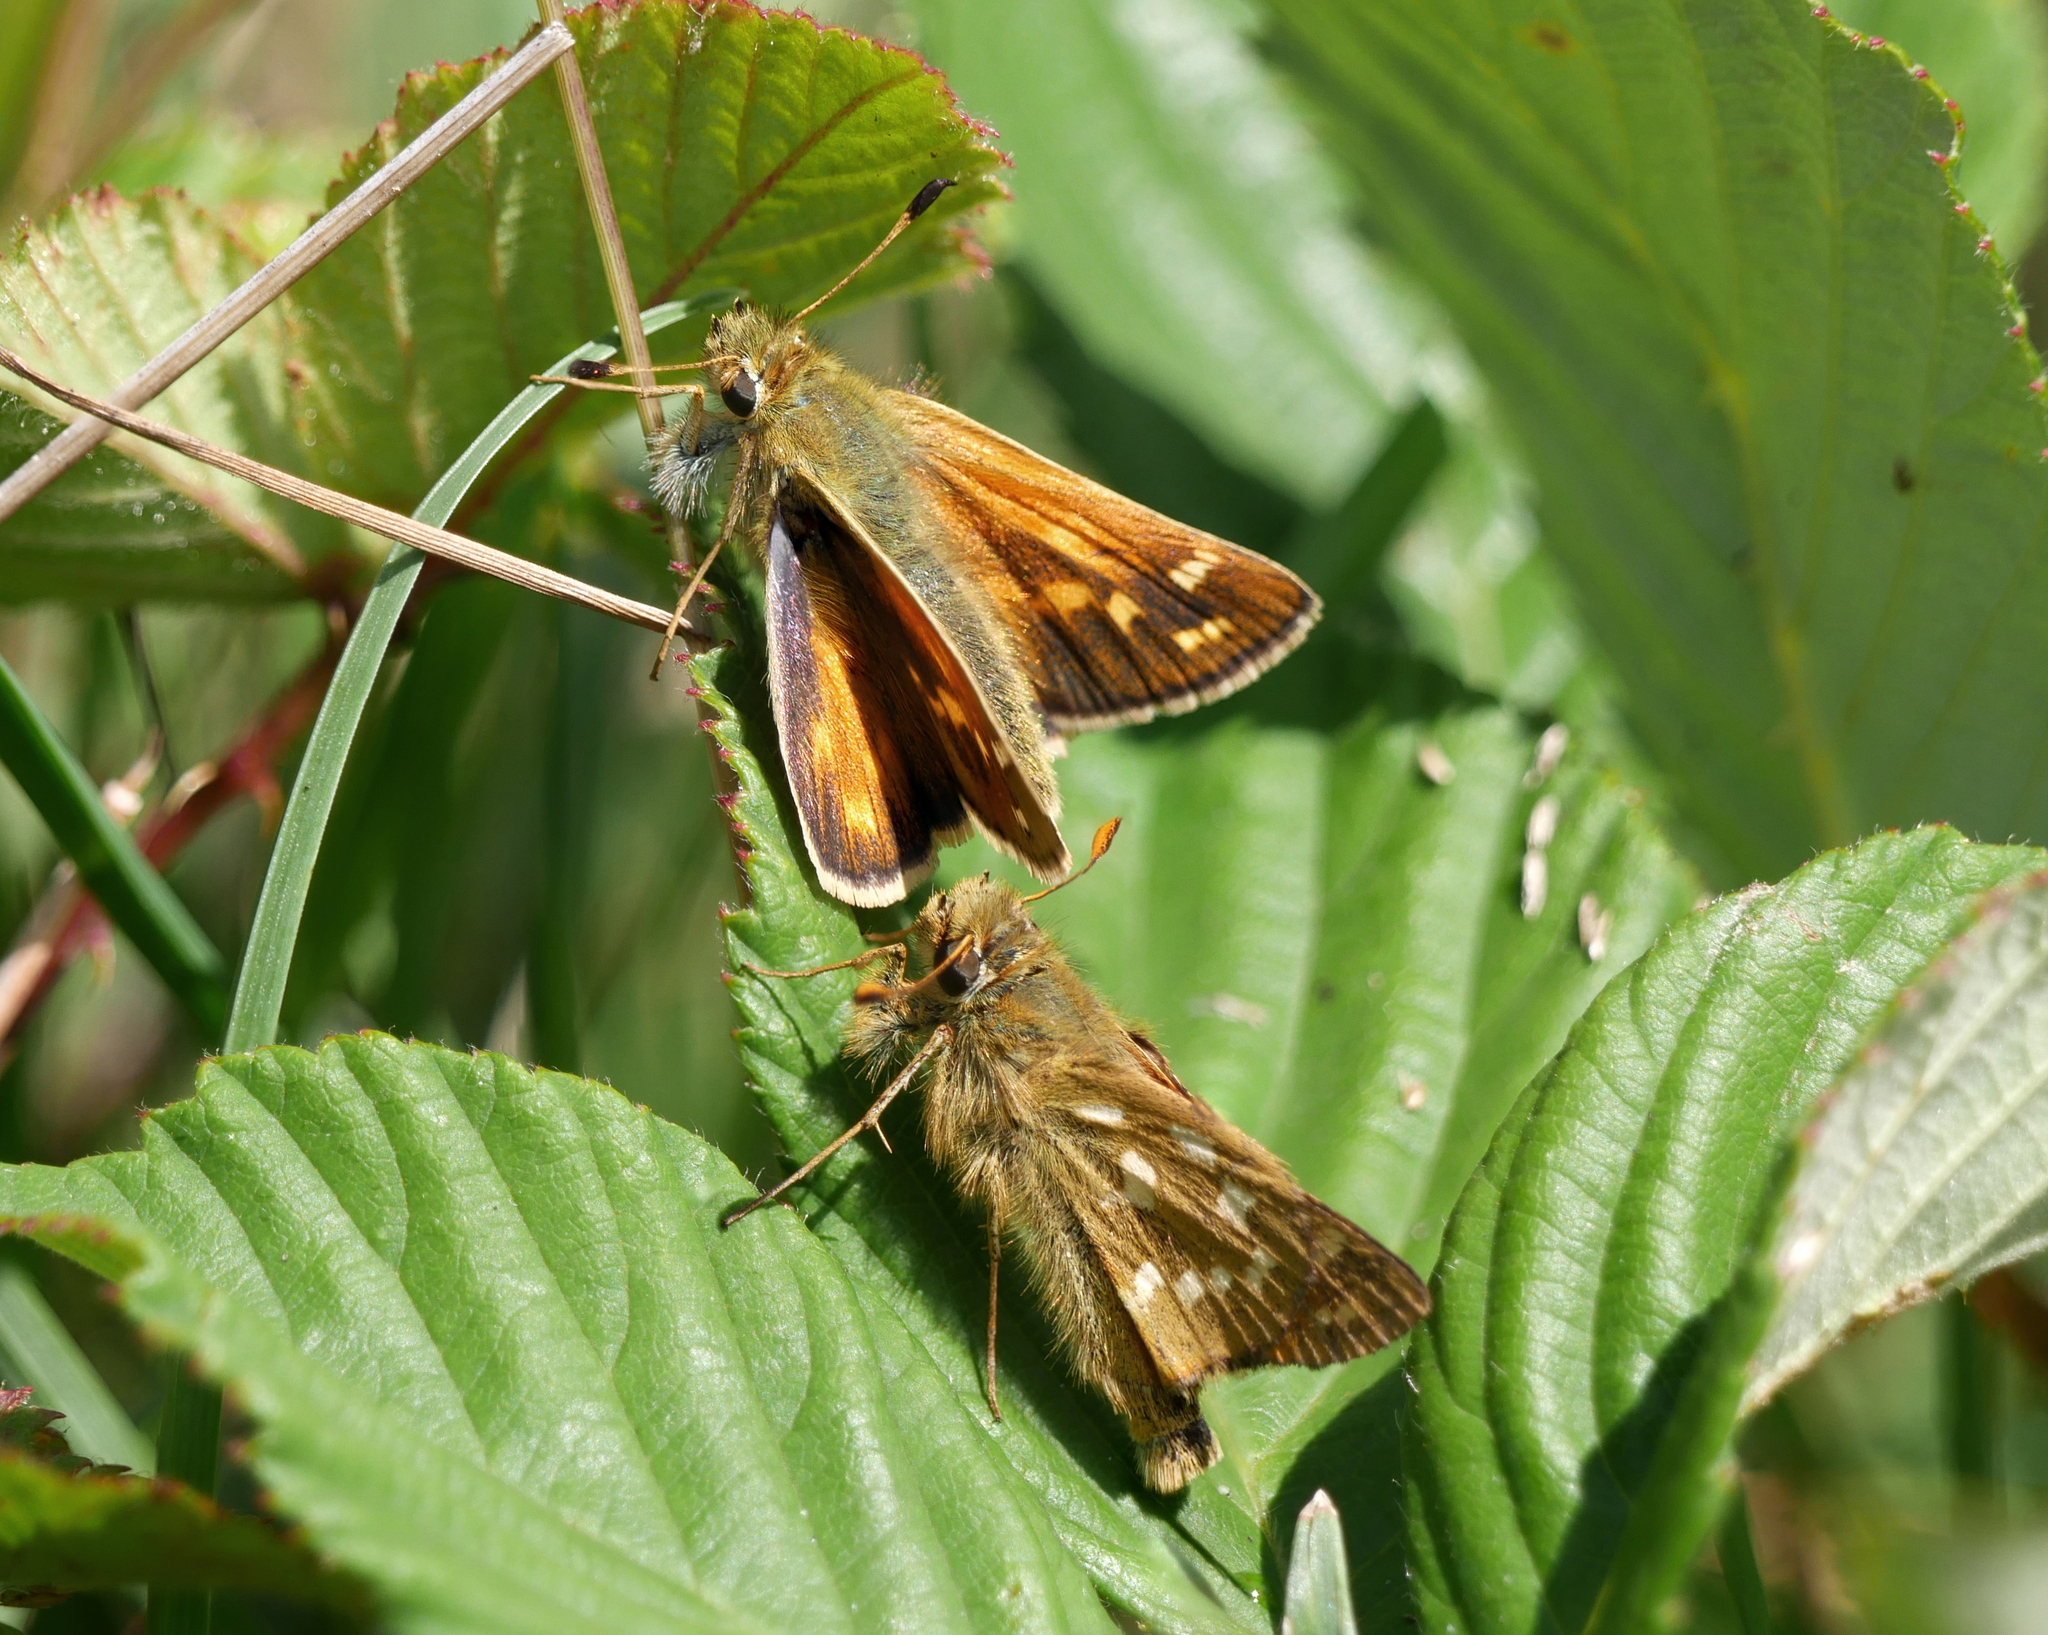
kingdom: Animalia
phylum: Arthropoda
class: Insecta
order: Lepidoptera
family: Hesperiidae
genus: Hesperia
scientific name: Hesperia comma
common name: Common branded skipper
